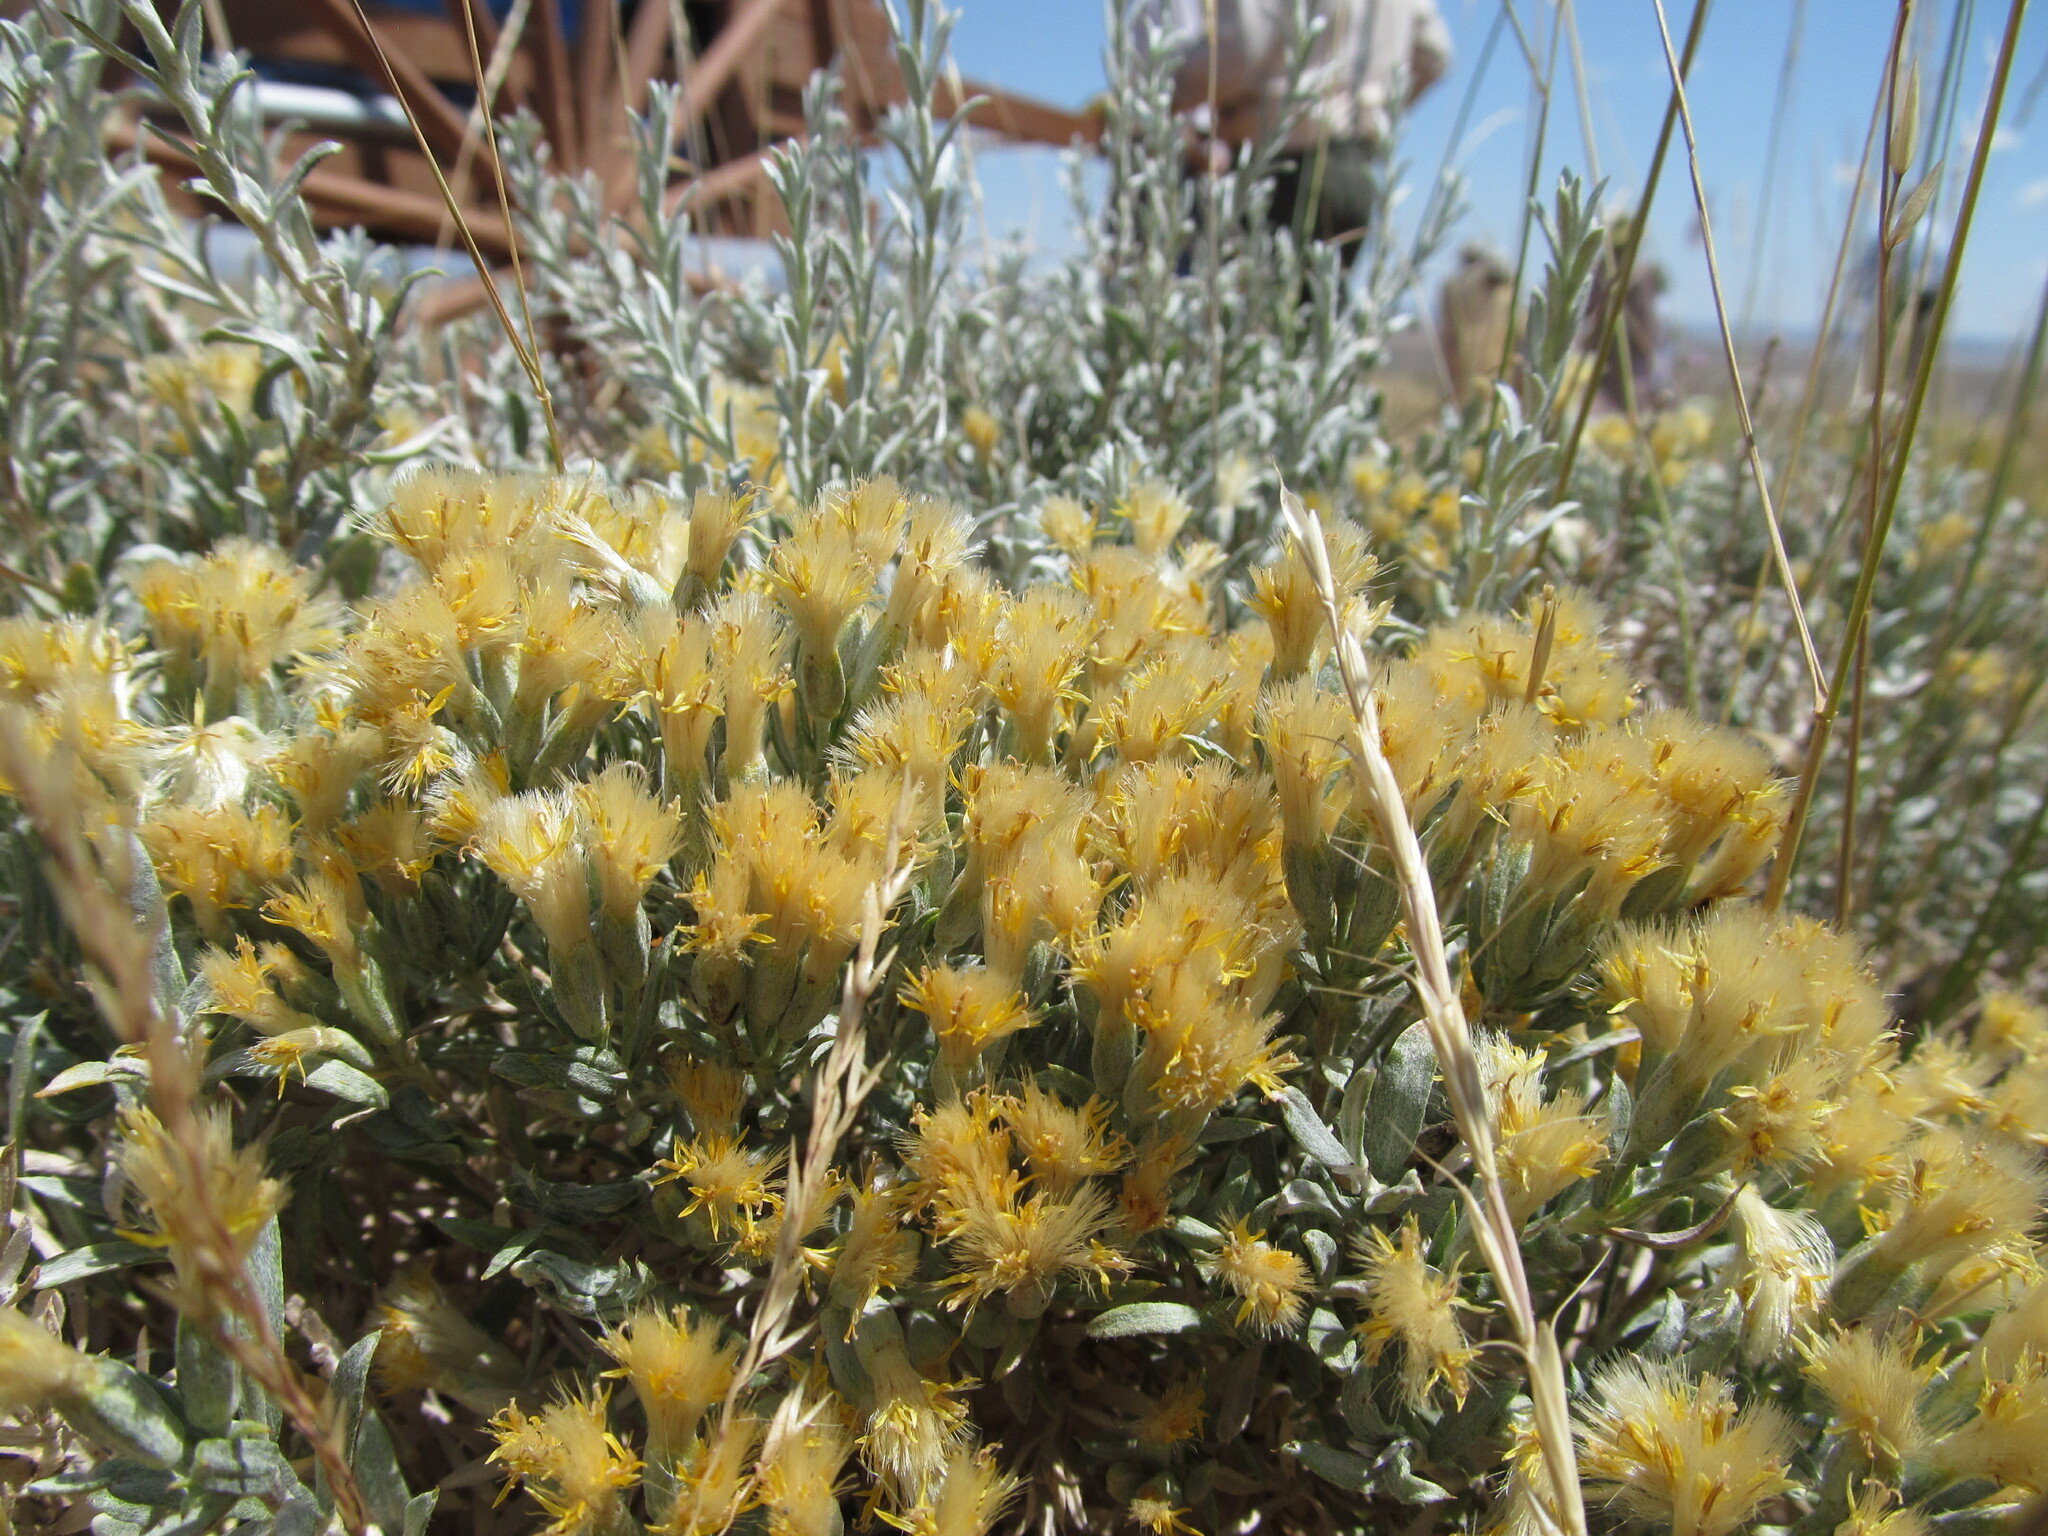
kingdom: Plantae
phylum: Tracheophyta
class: Magnoliopsida
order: Asterales
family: Asteraceae
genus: Tetradymia
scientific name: Tetradymia canescens
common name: Spineless horsebrush
